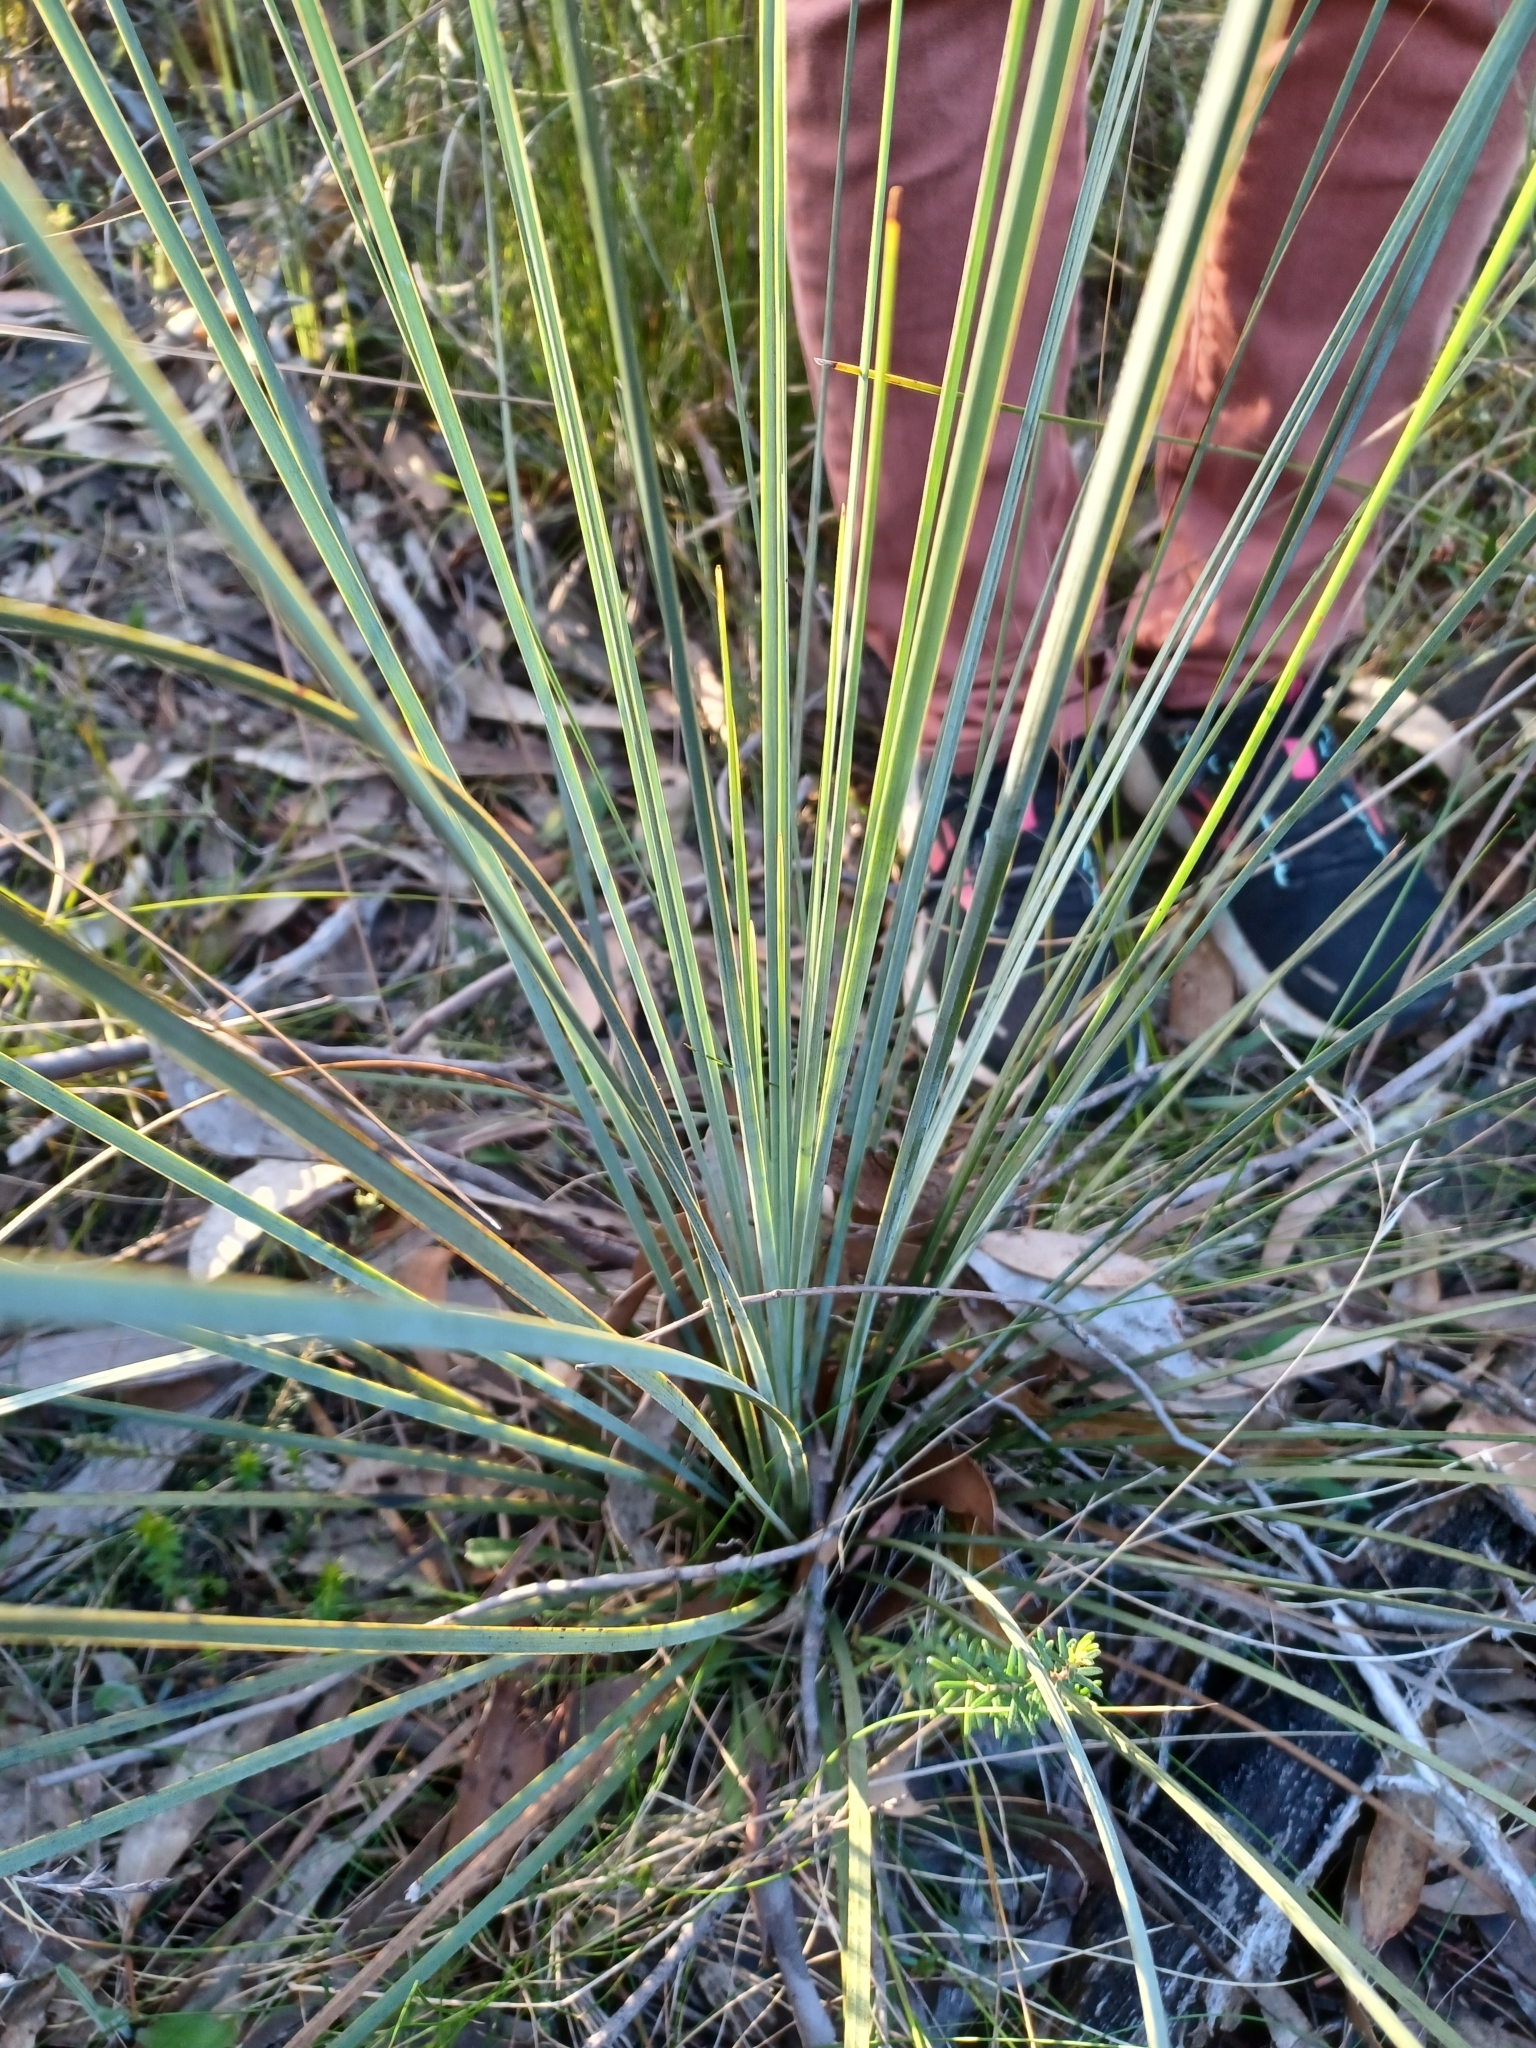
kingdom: Plantae
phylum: Tracheophyta
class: Liliopsida
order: Asparagales
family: Asphodelaceae
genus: Xanthorrhoea
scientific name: Xanthorrhoea caespitosa
